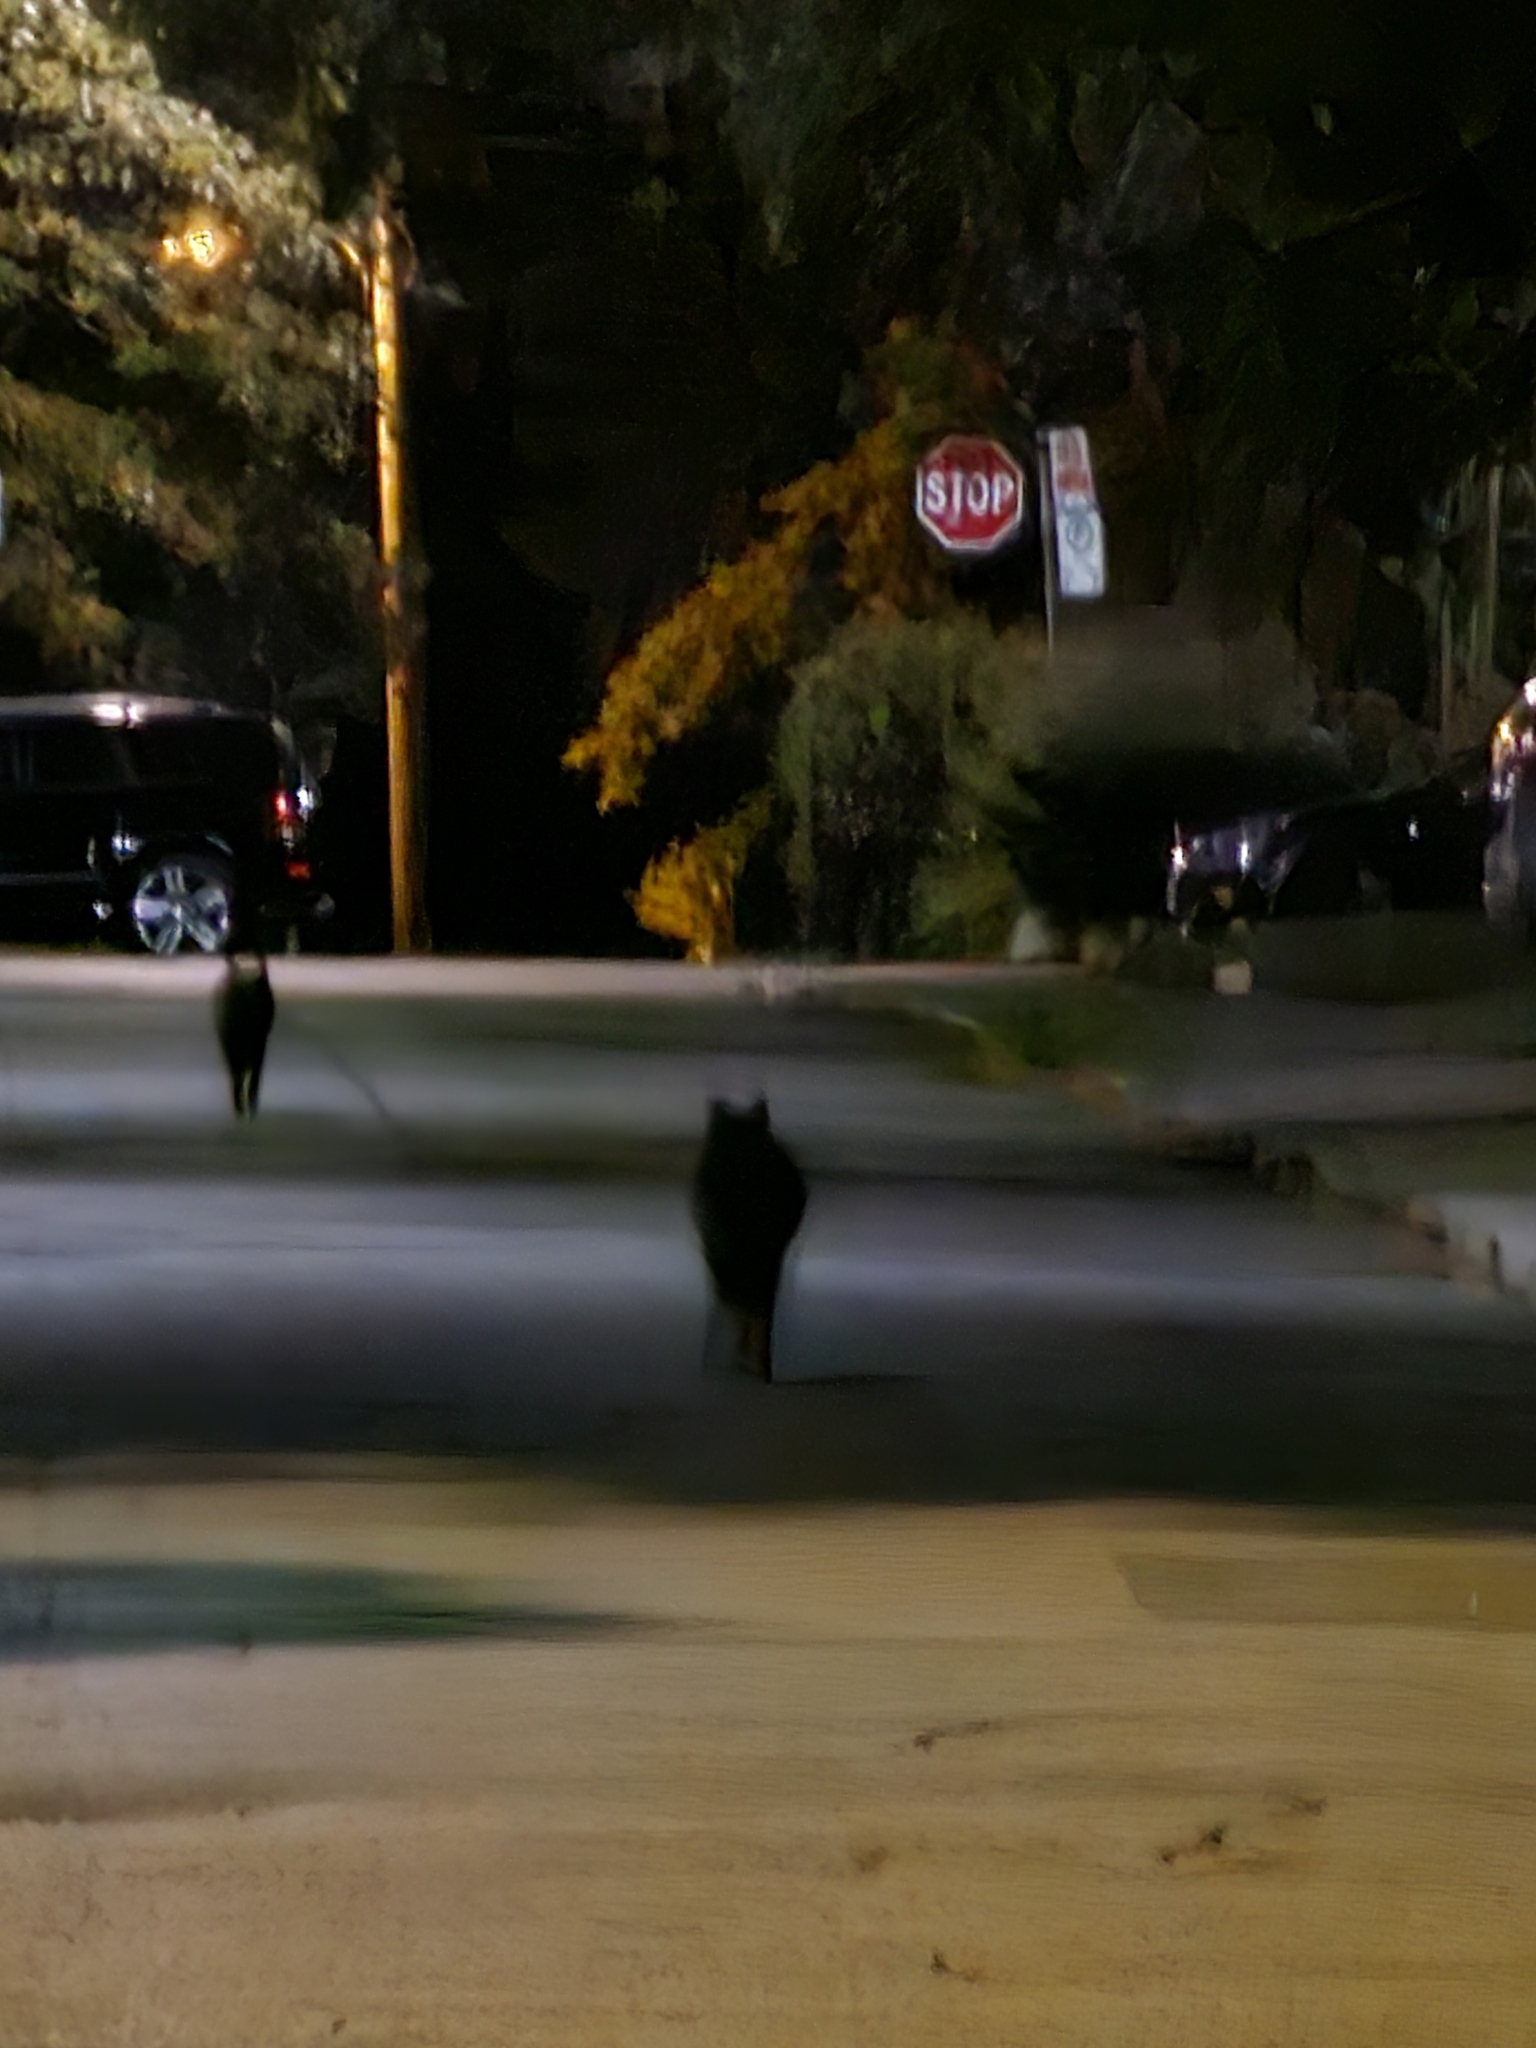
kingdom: Animalia
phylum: Chordata
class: Mammalia
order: Carnivora
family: Canidae
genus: Canis
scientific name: Canis latrans
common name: Coyote
